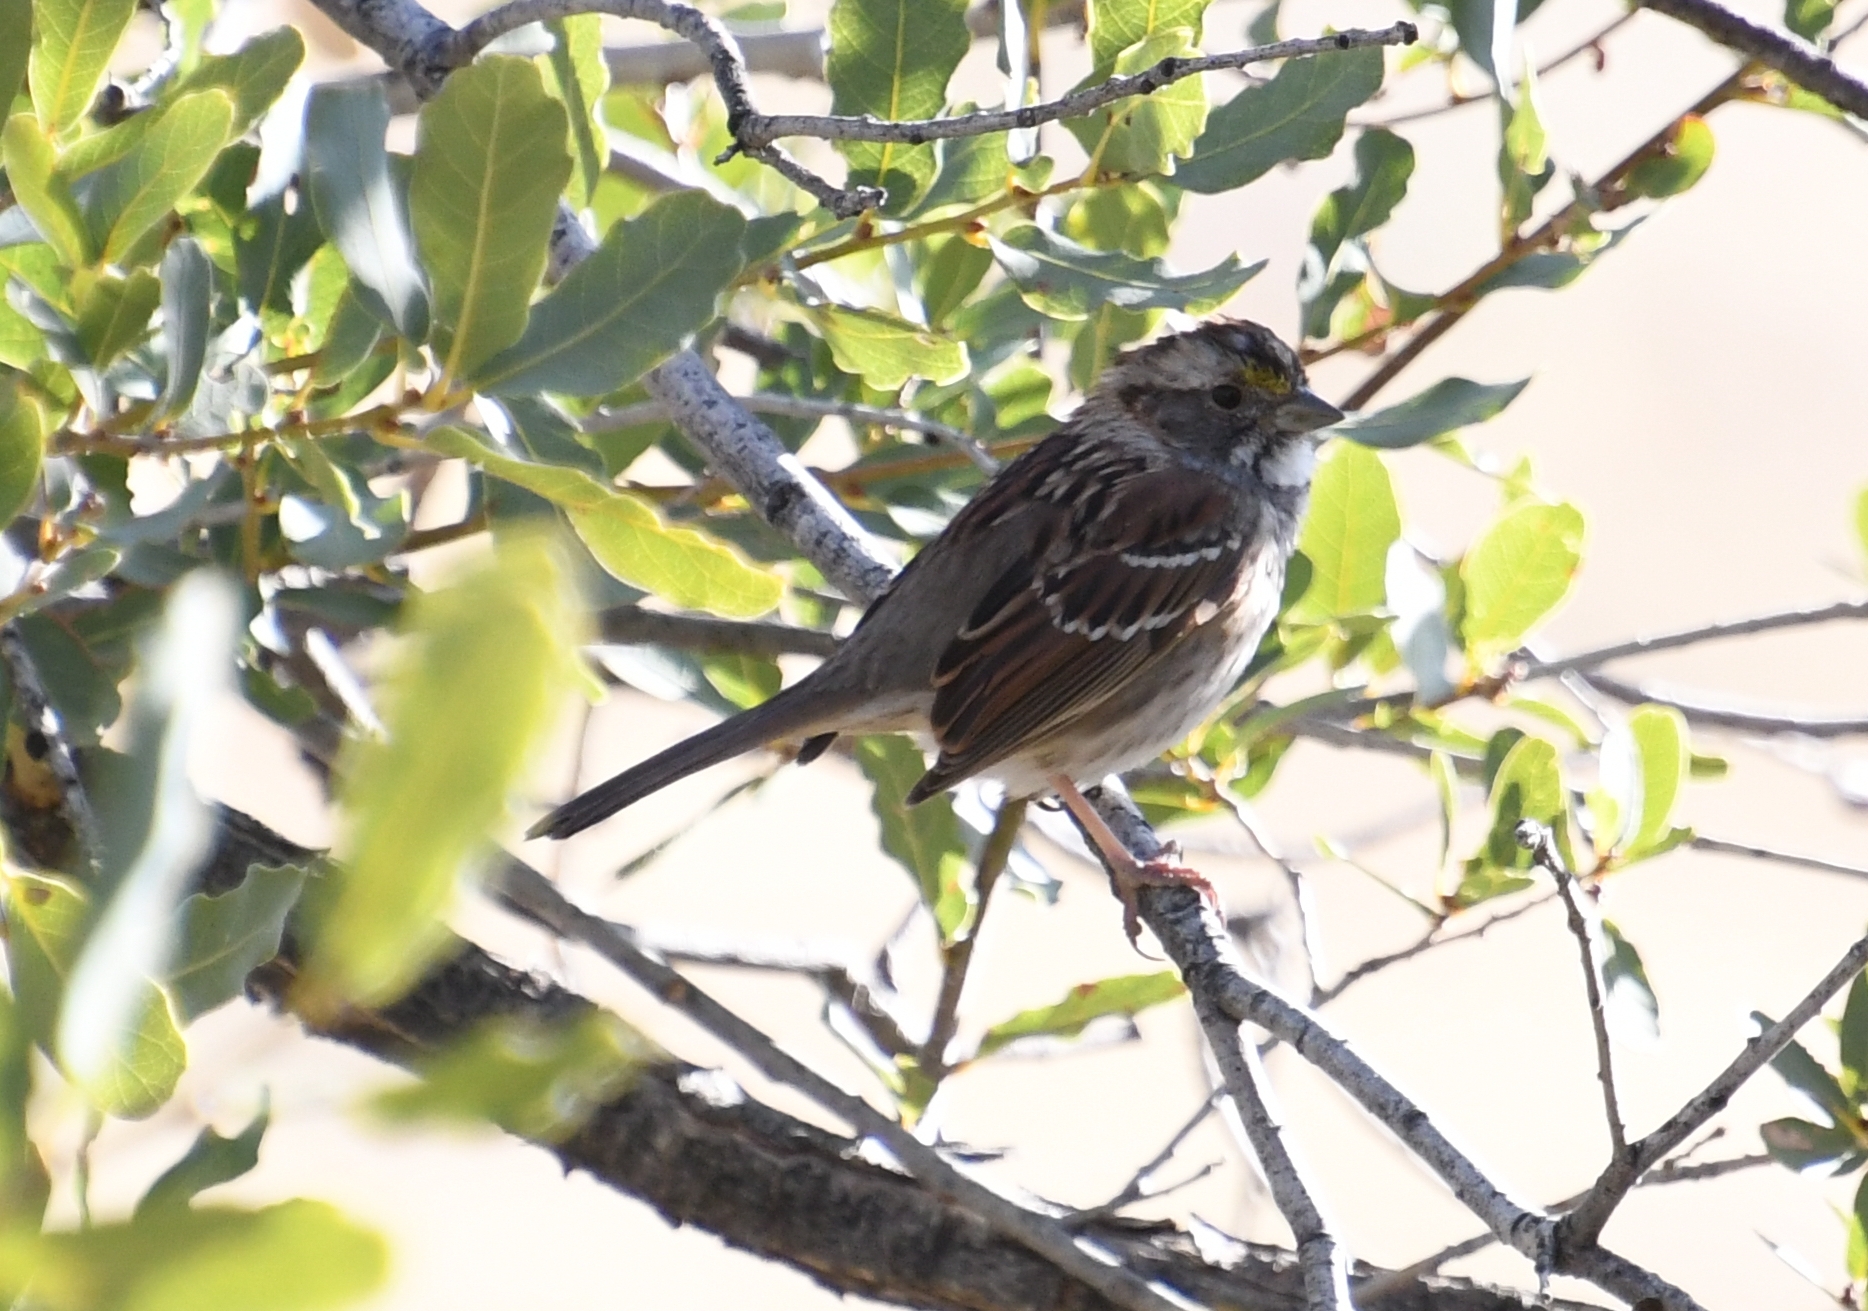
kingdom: Animalia
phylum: Chordata
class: Aves
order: Passeriformes
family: Passerellidae
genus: Zonotrichia
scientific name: Zonotrichia albicollis
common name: White-throated sparrow
